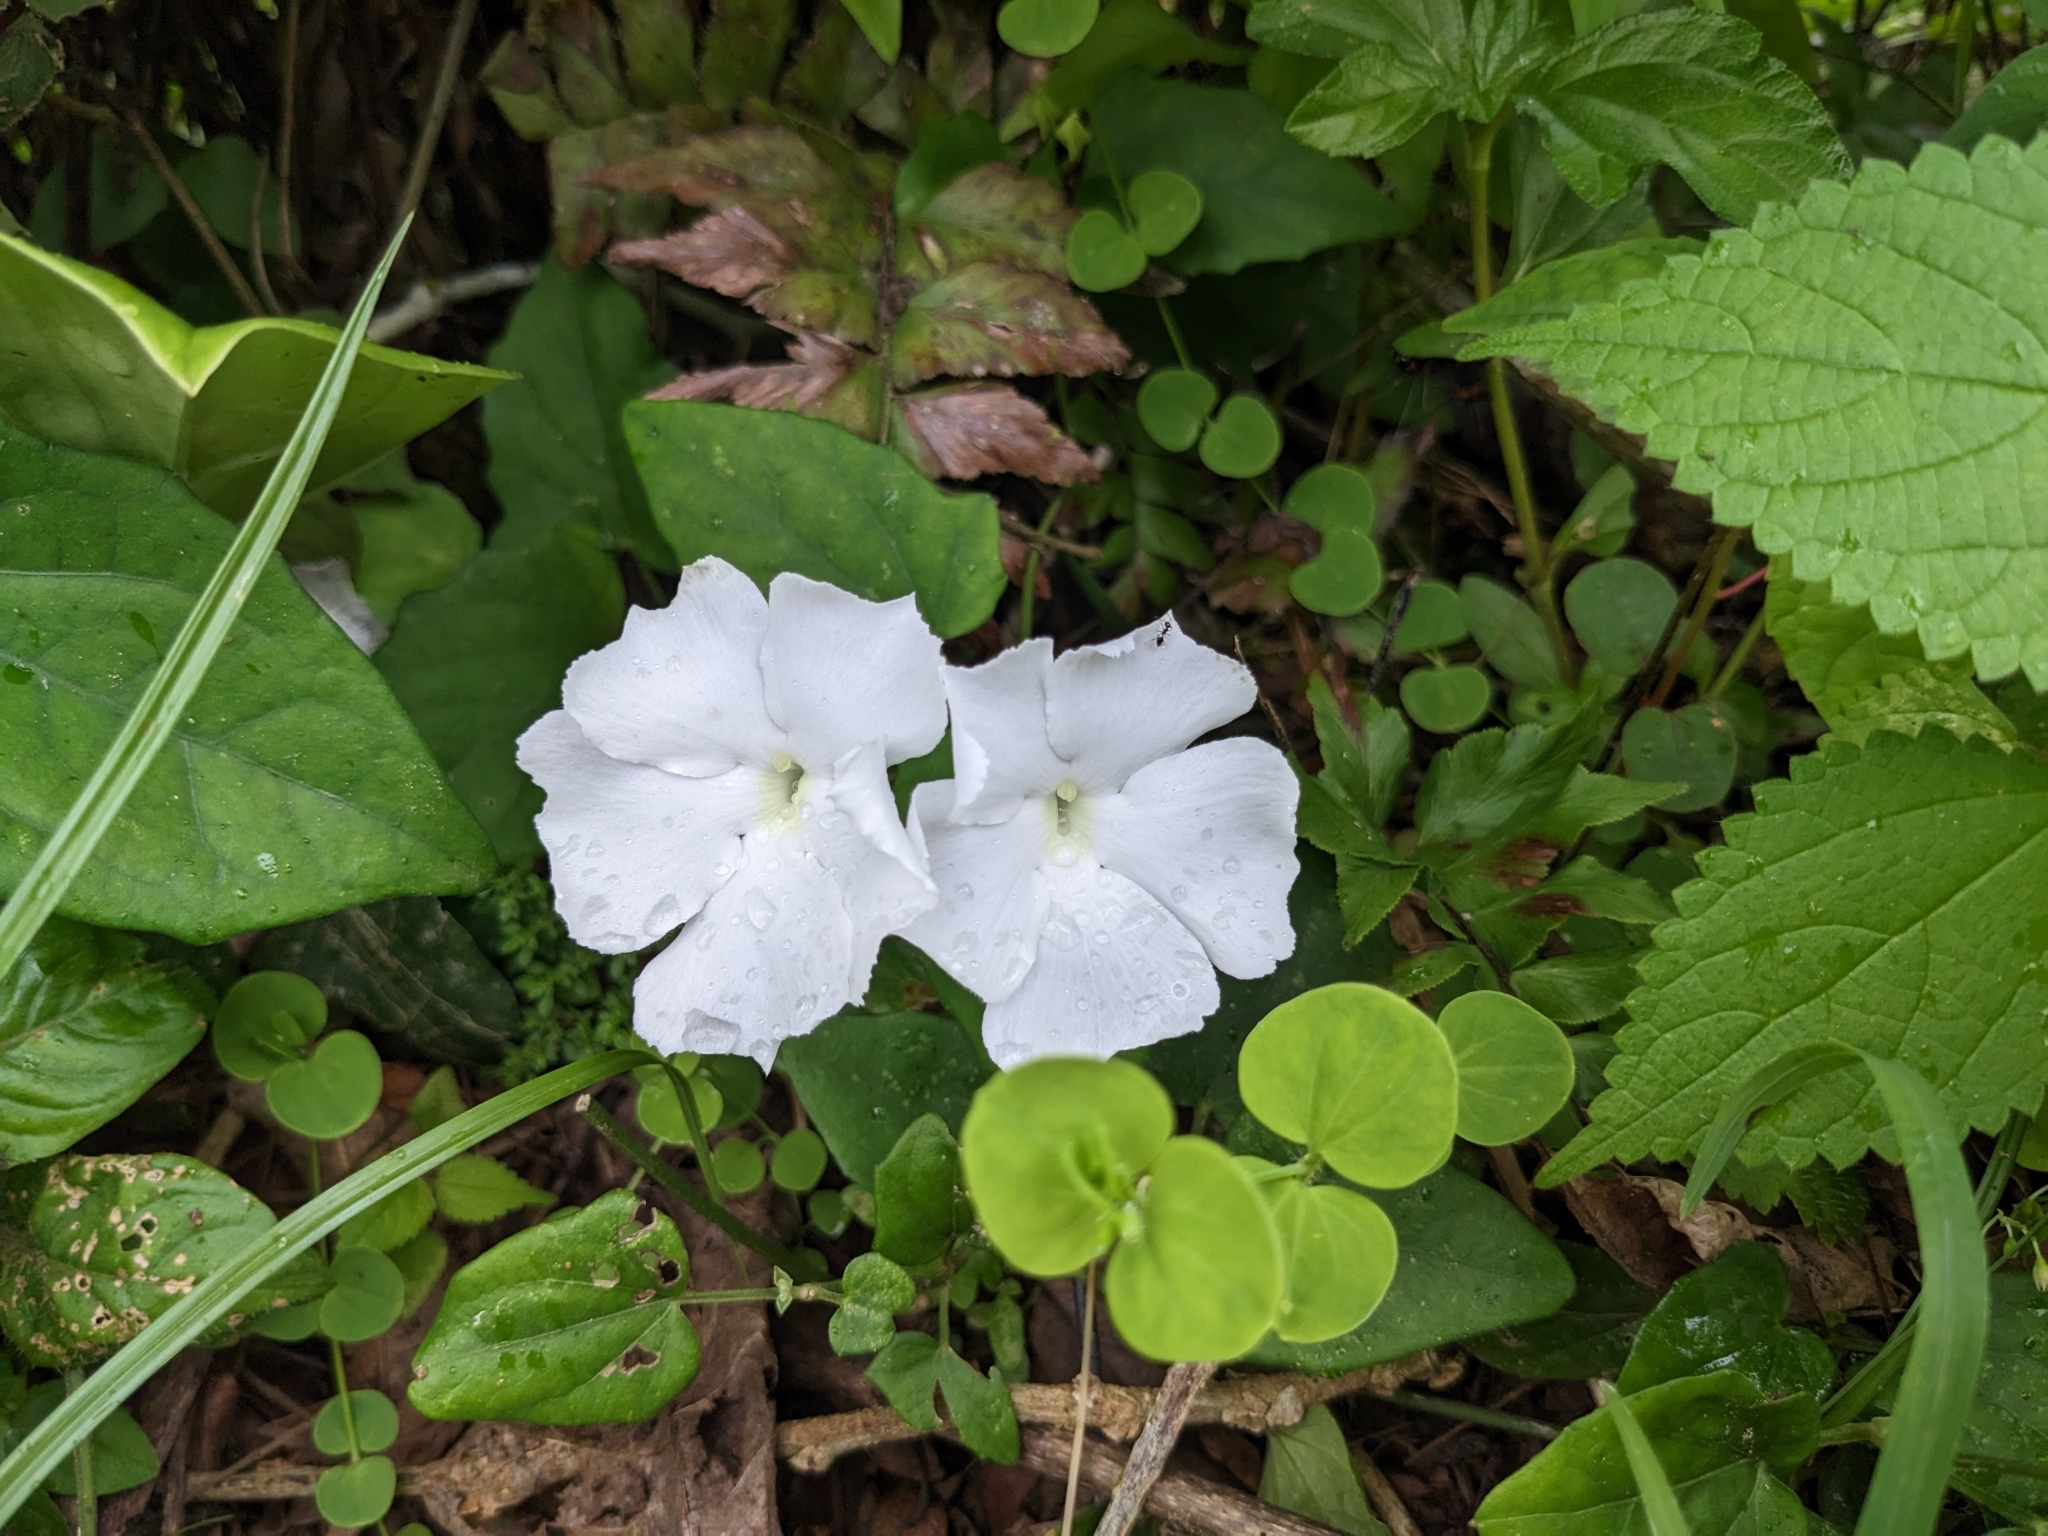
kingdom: Plantae
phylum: Tracheophyta
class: Magnoliopsida
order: Lamiales
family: Acanthaceae
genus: Thunbergia
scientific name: Thunbergia fragrans
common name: Whitelady
